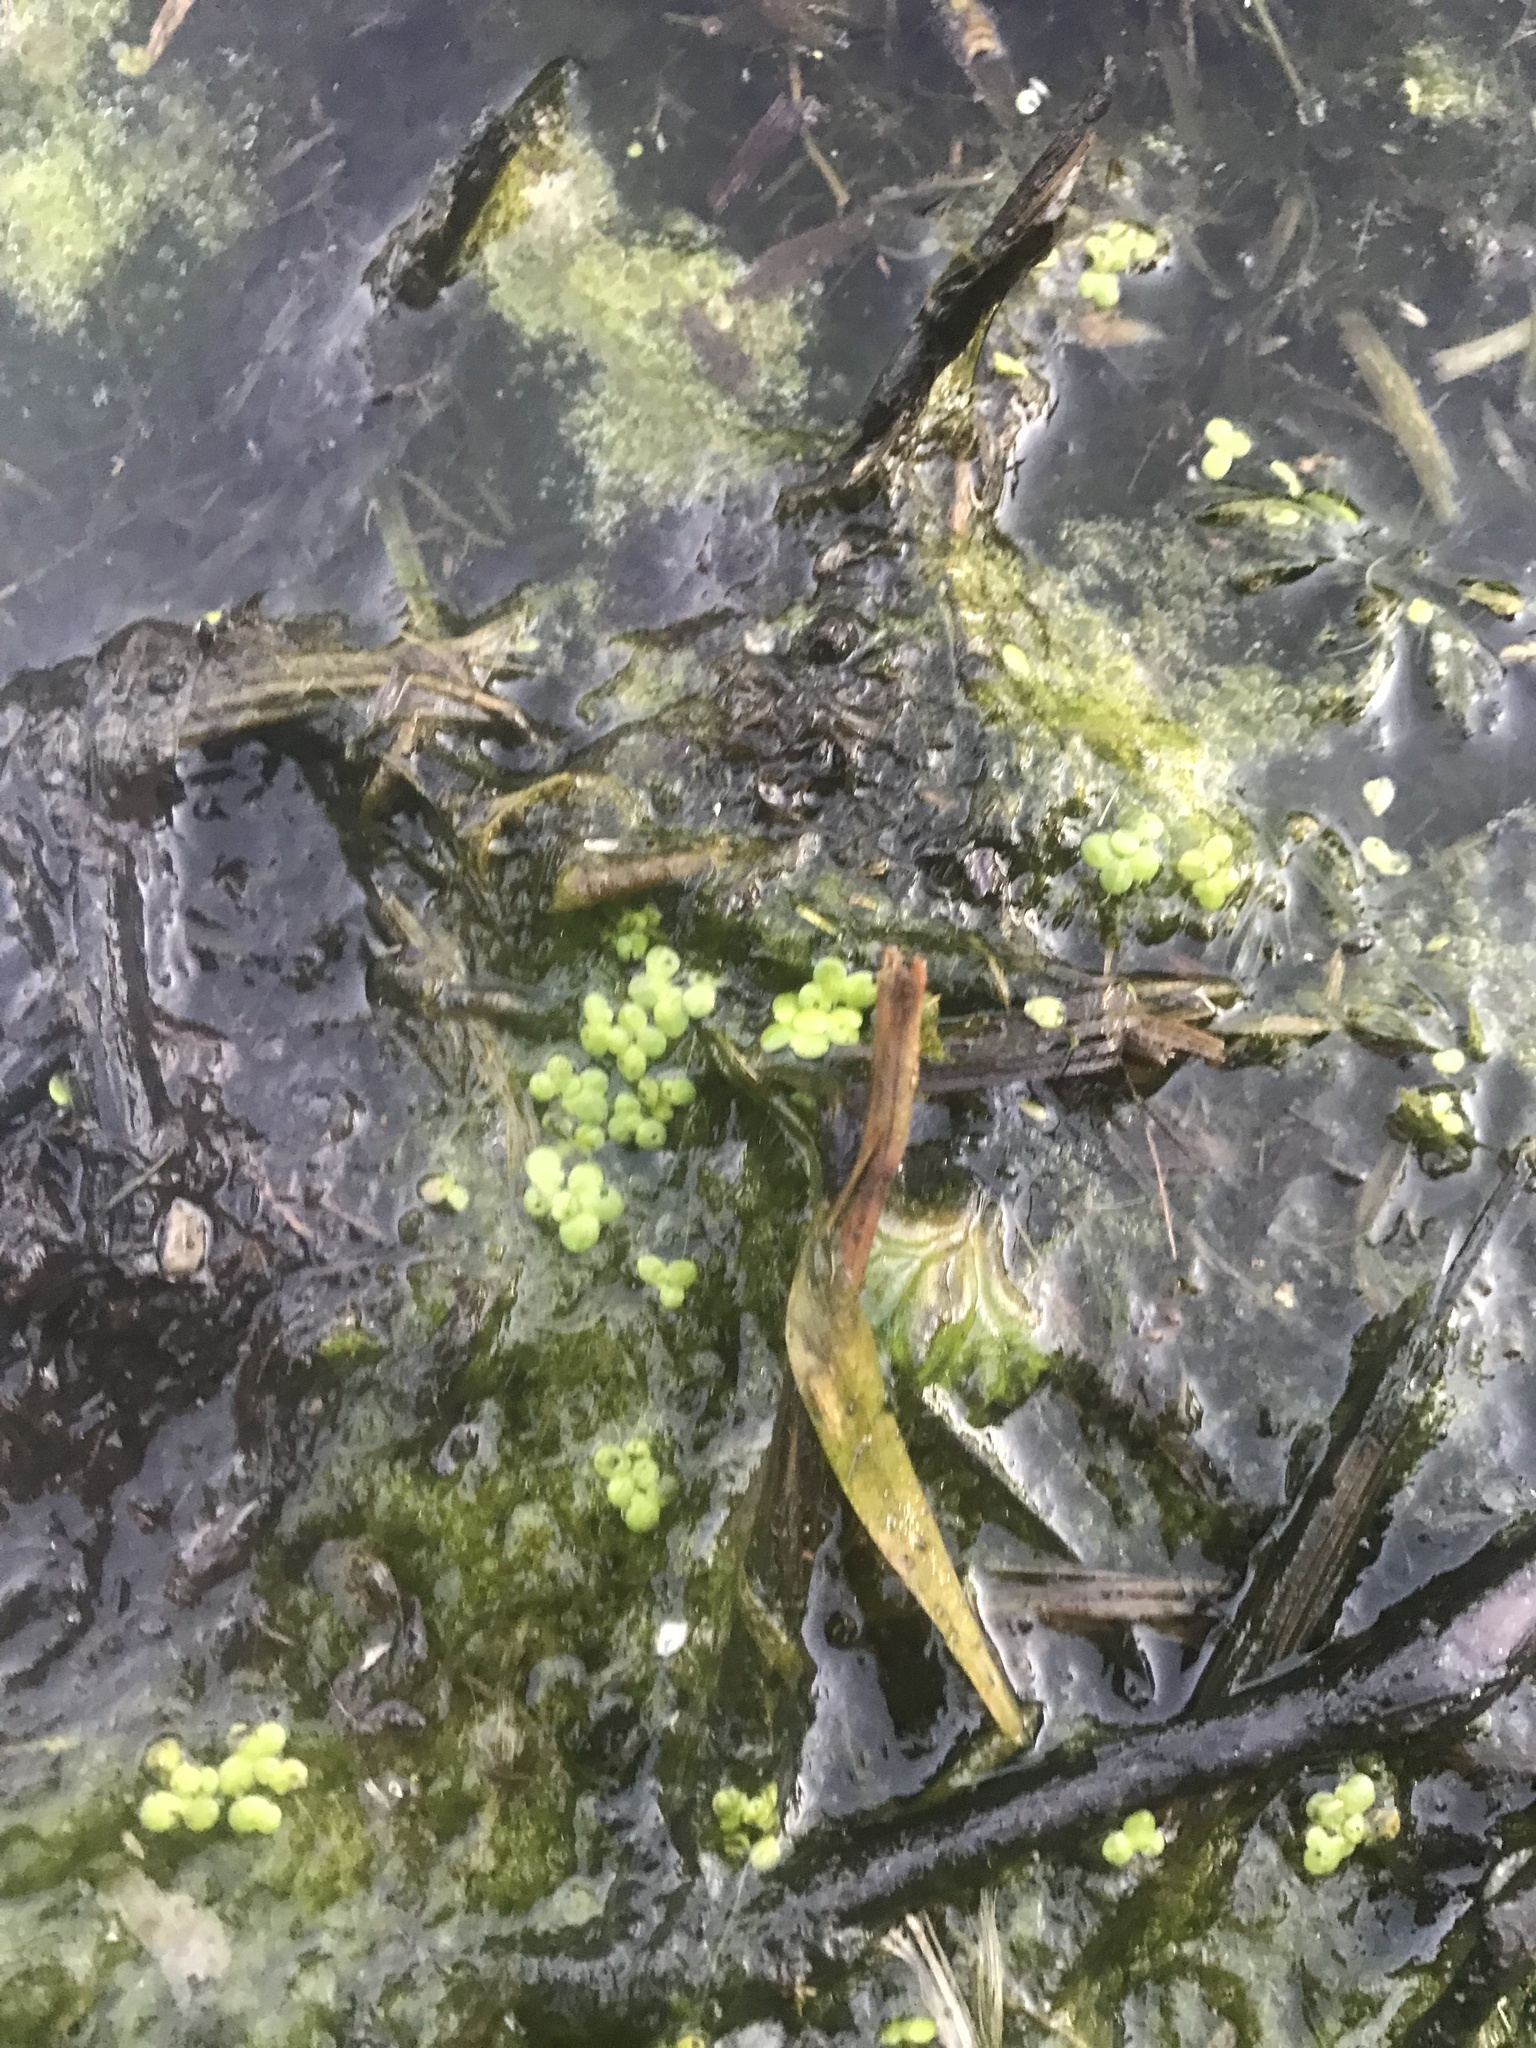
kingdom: Plantae
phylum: Tracheophyta
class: Liliopsida
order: Alismatales
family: Araceae
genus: Lemna
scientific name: Lemna minor
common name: Common duckweed
